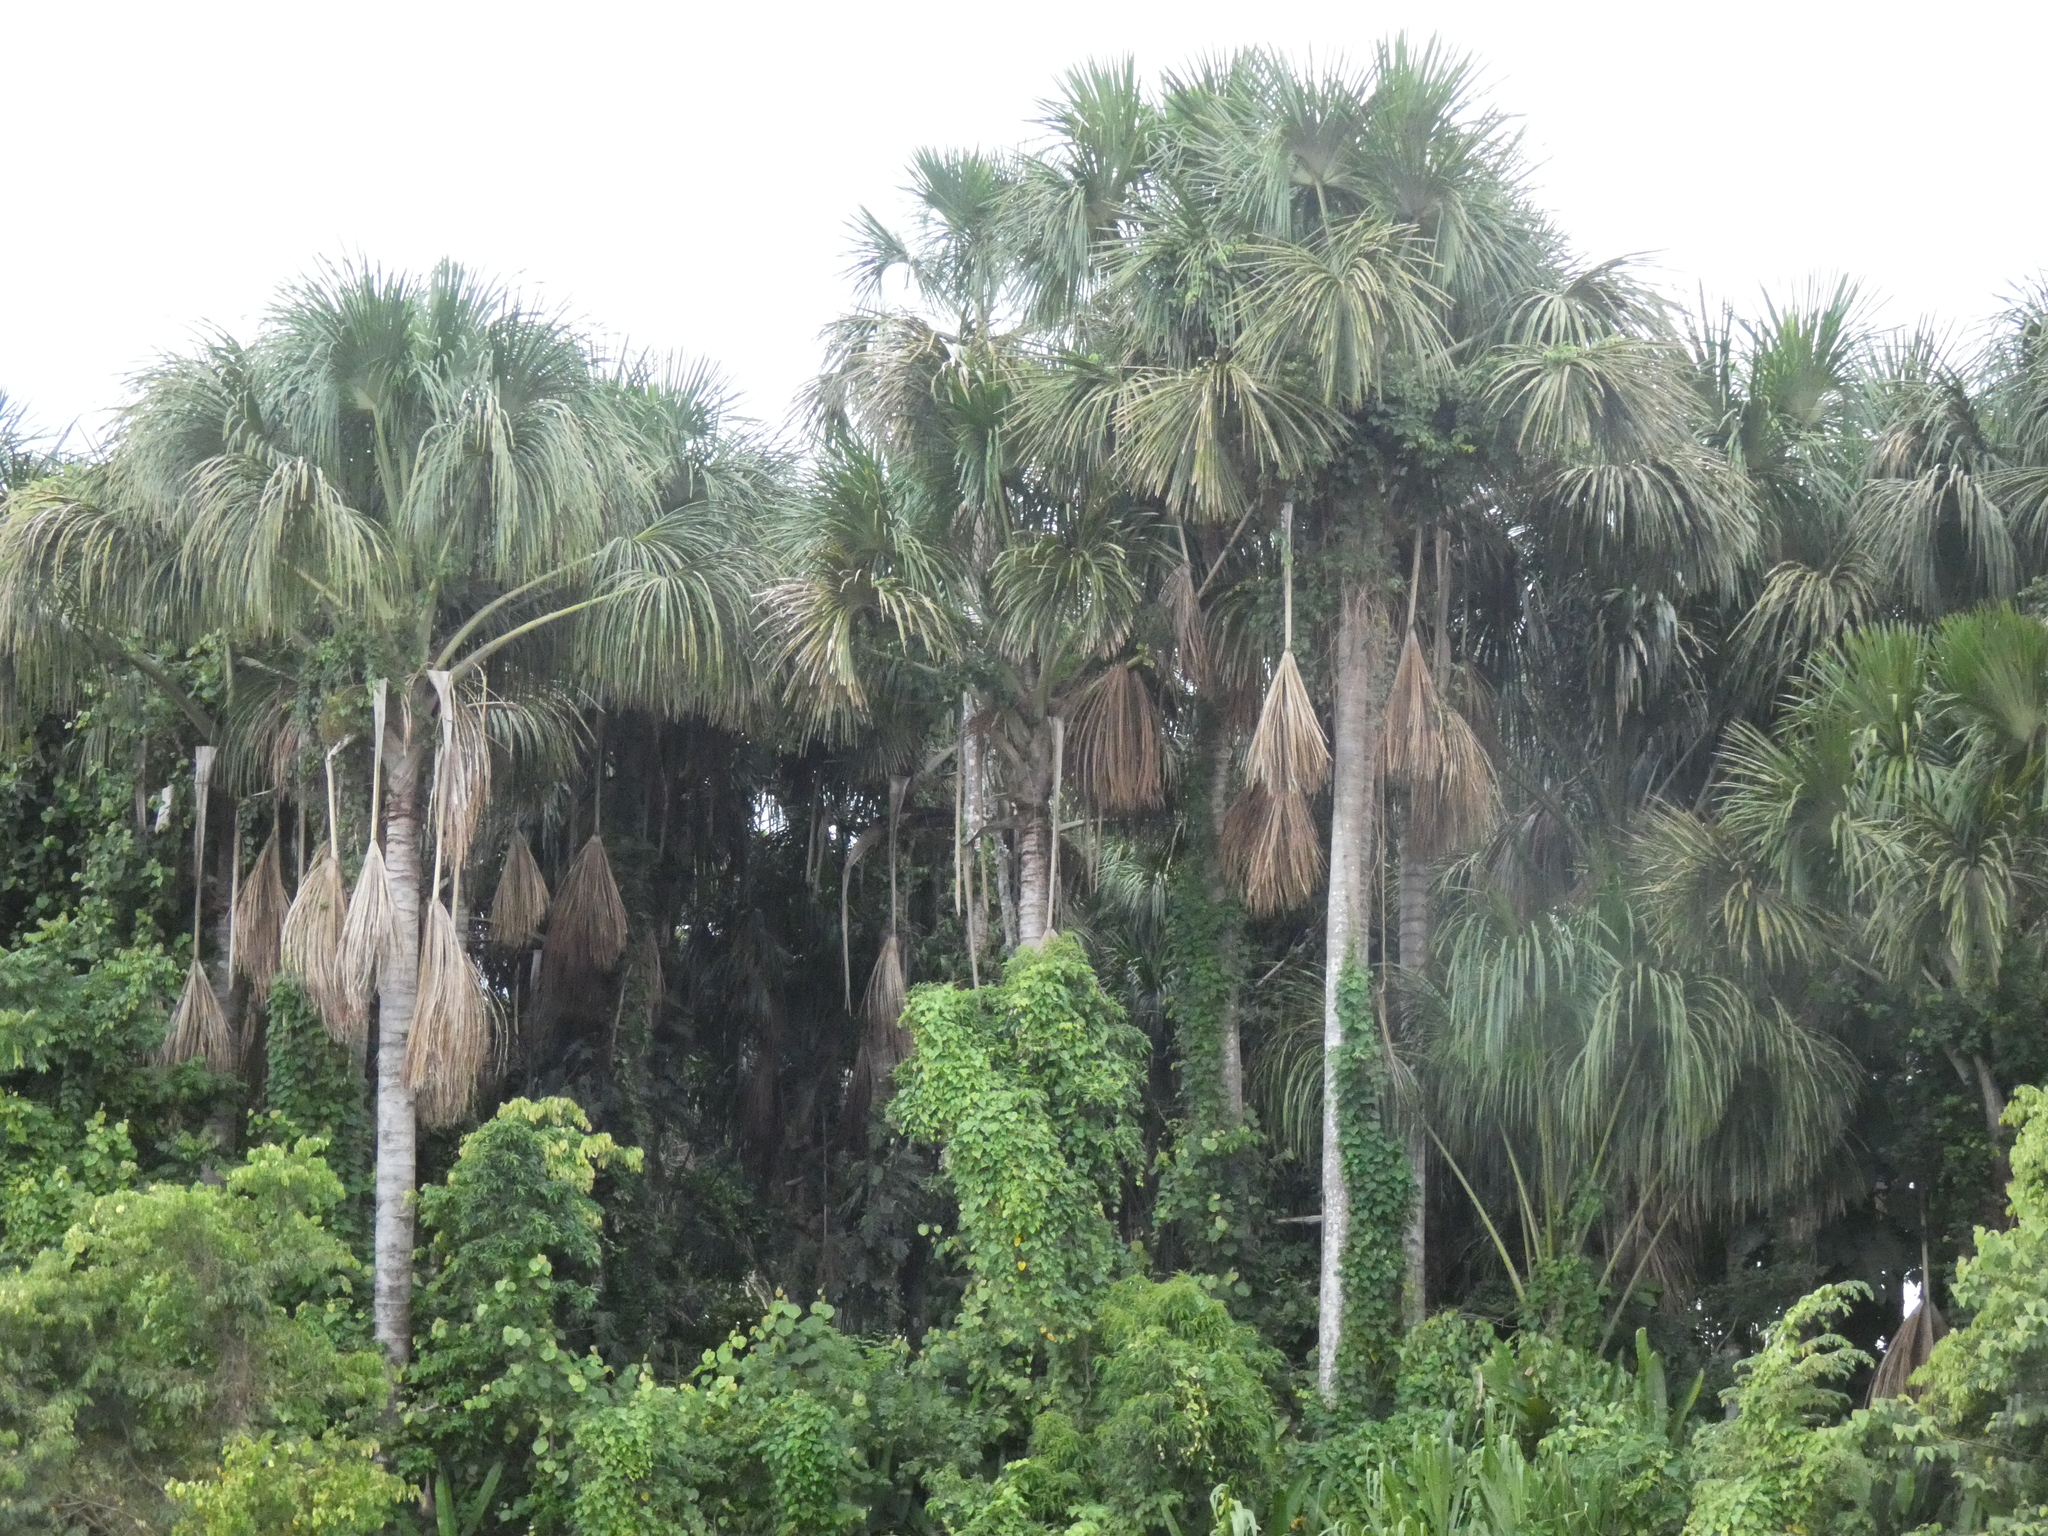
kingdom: Plantae
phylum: Tracheophyta
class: Liliopsida
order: Arecales
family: Arecaceae
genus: Mauritia
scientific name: Mauritia flexuosa
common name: Tree-of-life
